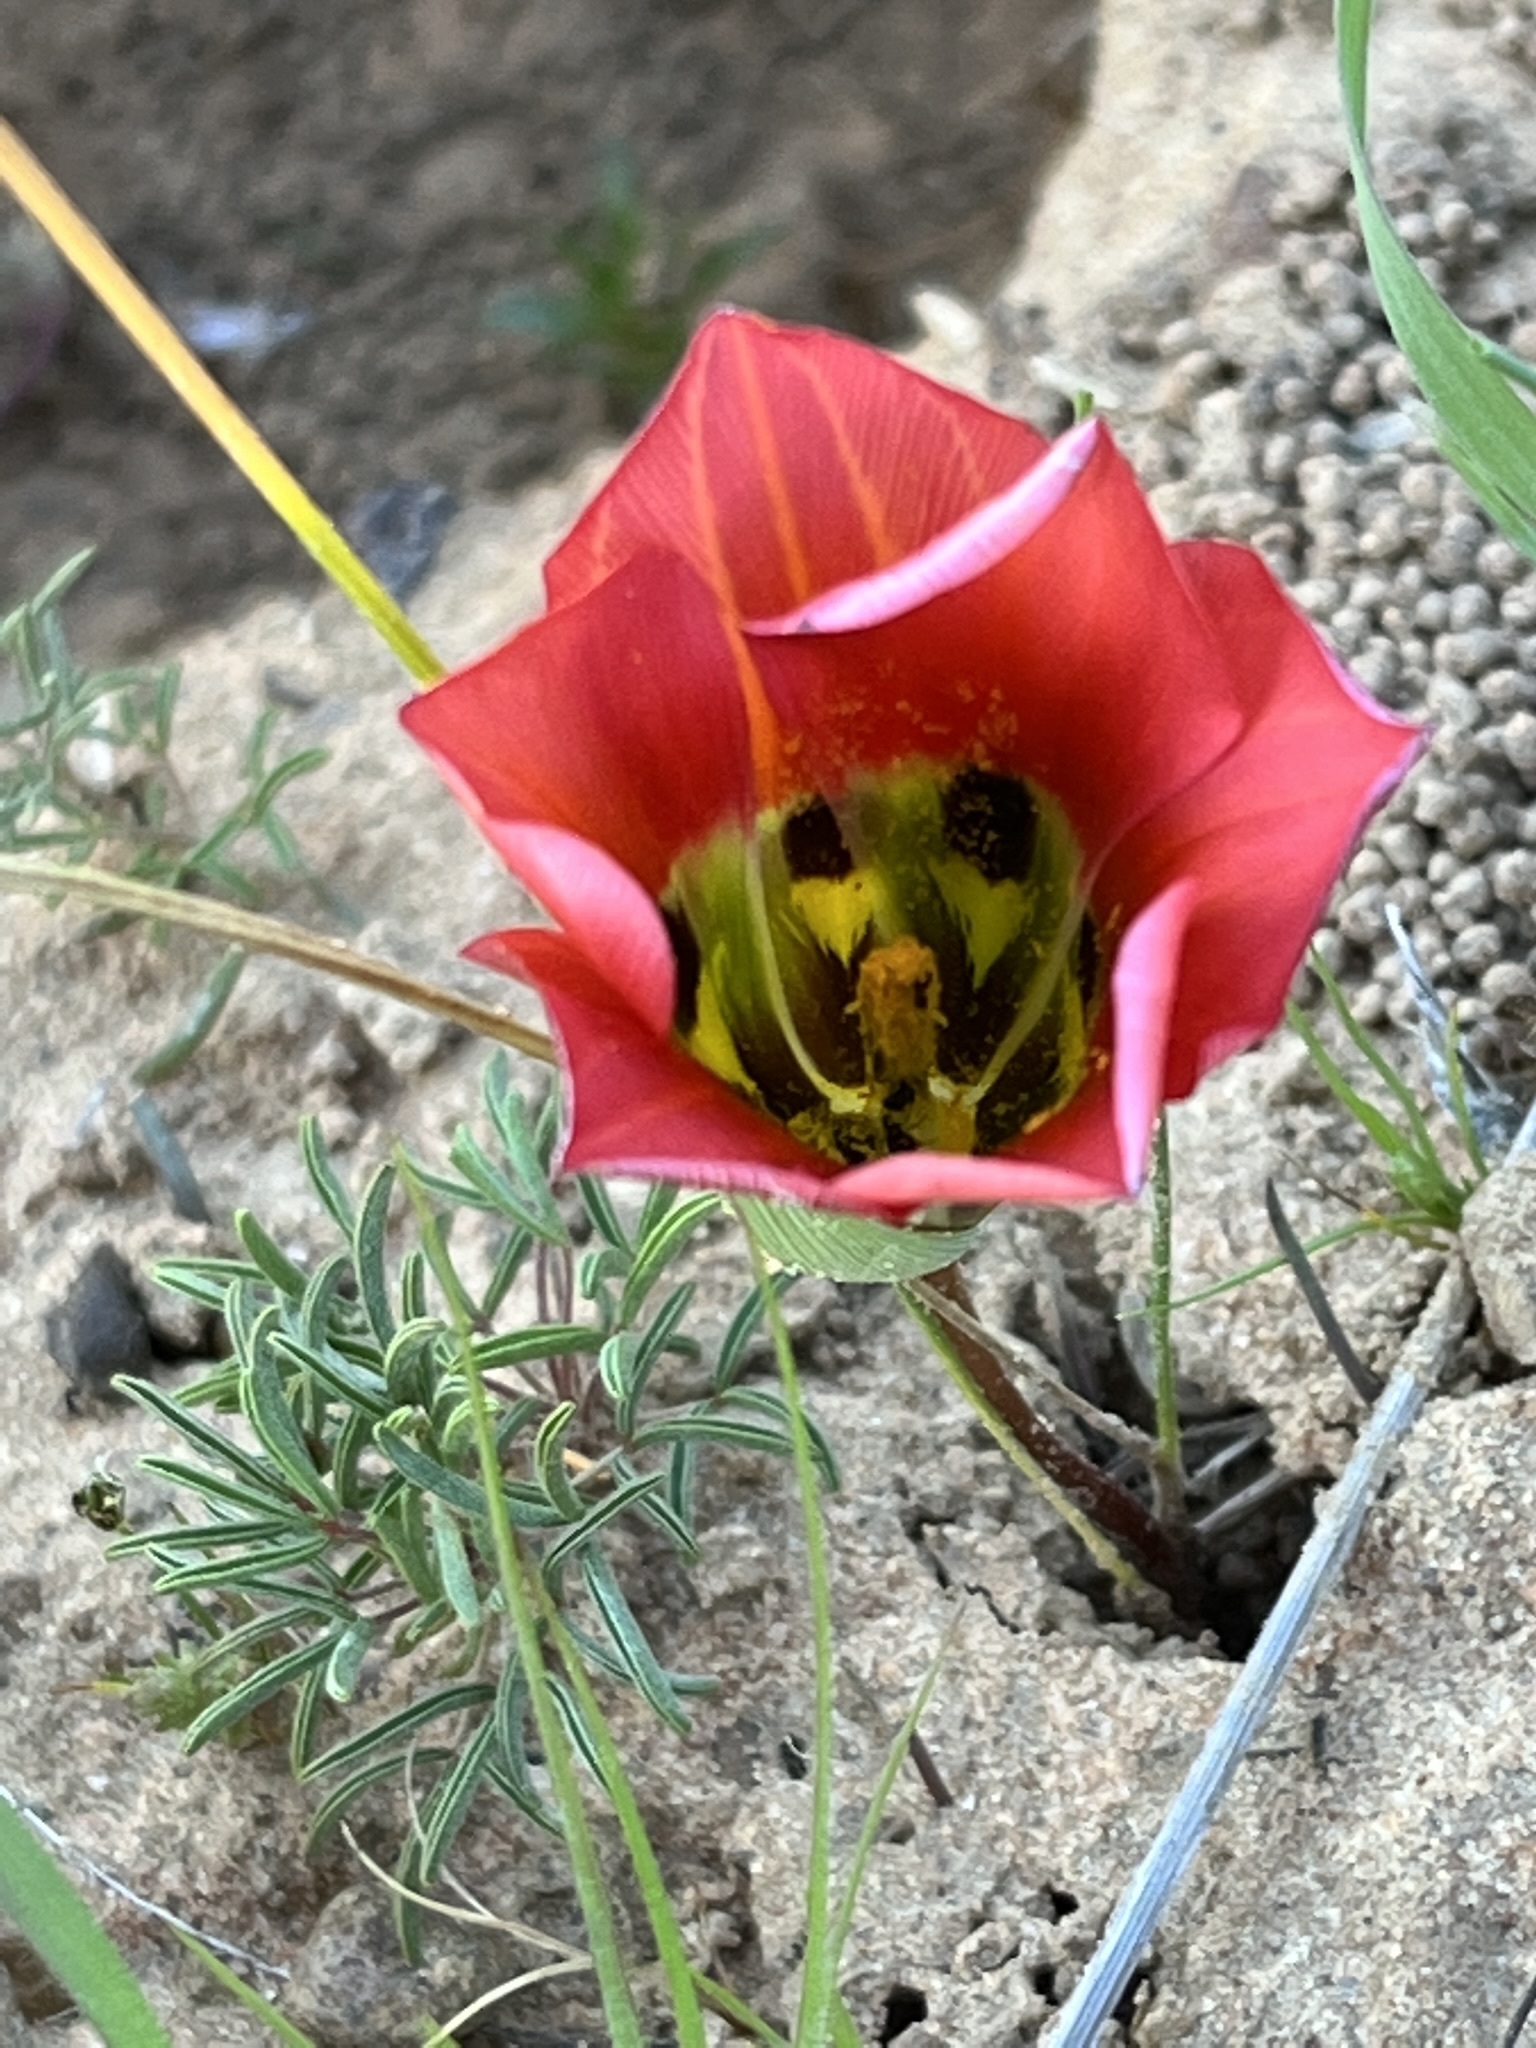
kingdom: Plantae
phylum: Tracheophyta
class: Liliopsida
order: Asparagales
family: Iridaceae
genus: Romulea
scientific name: Romulea sabulosa
